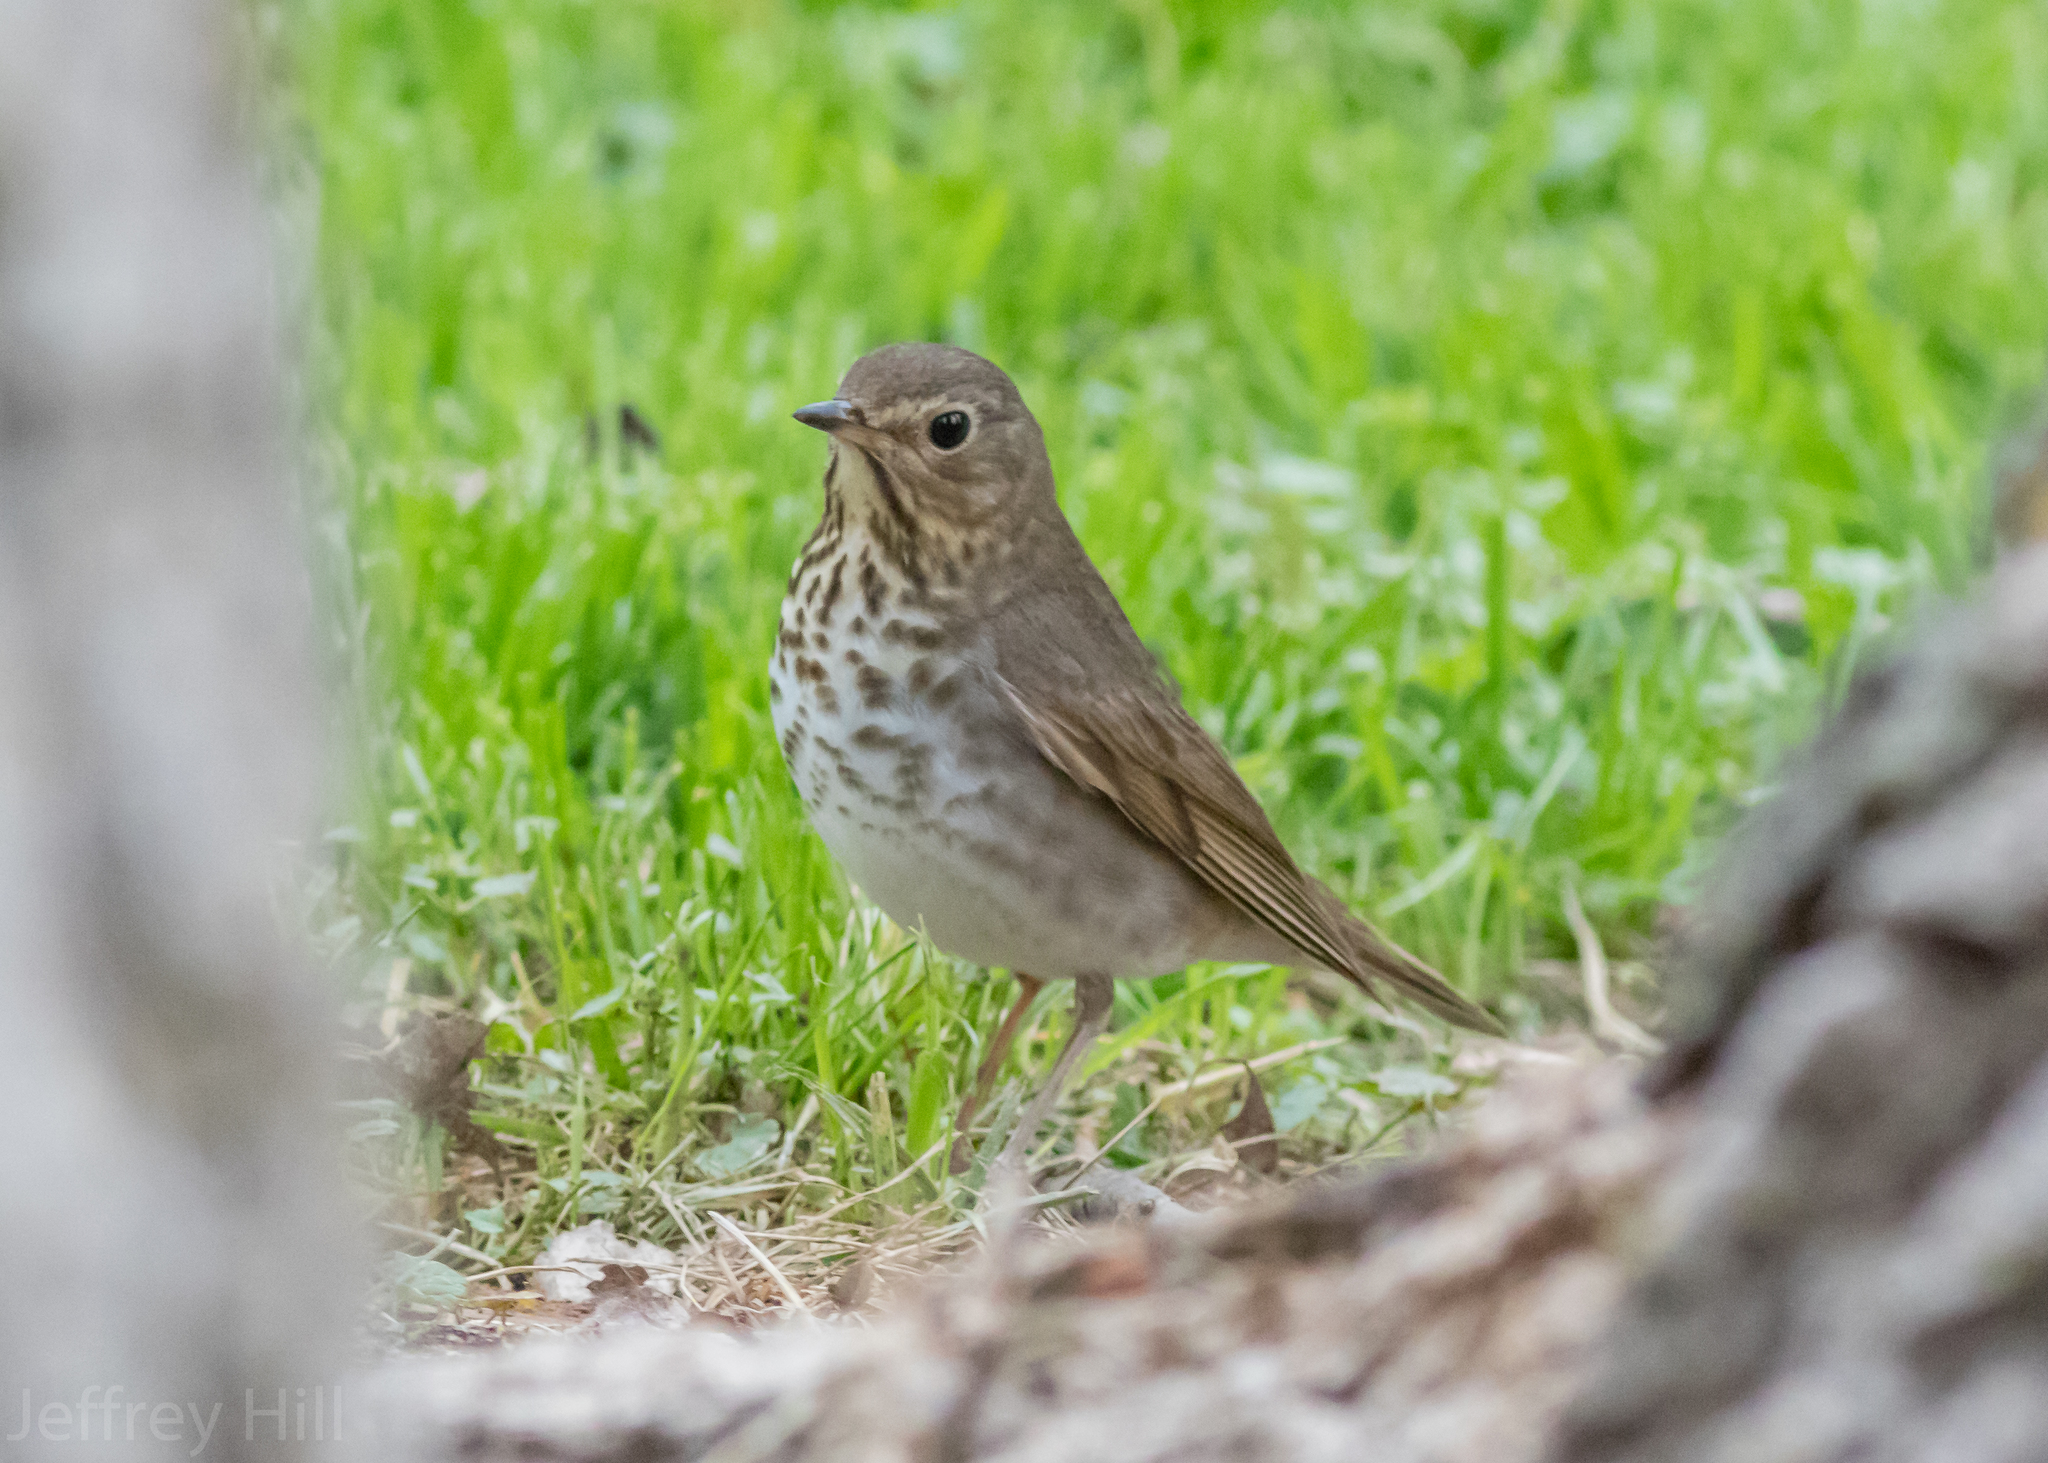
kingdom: Animalia
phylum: Chordata
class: Aves
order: Passeriformes
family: Turdidae
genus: Catharus
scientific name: Catharus ustulatus
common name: Swainson's thrush
